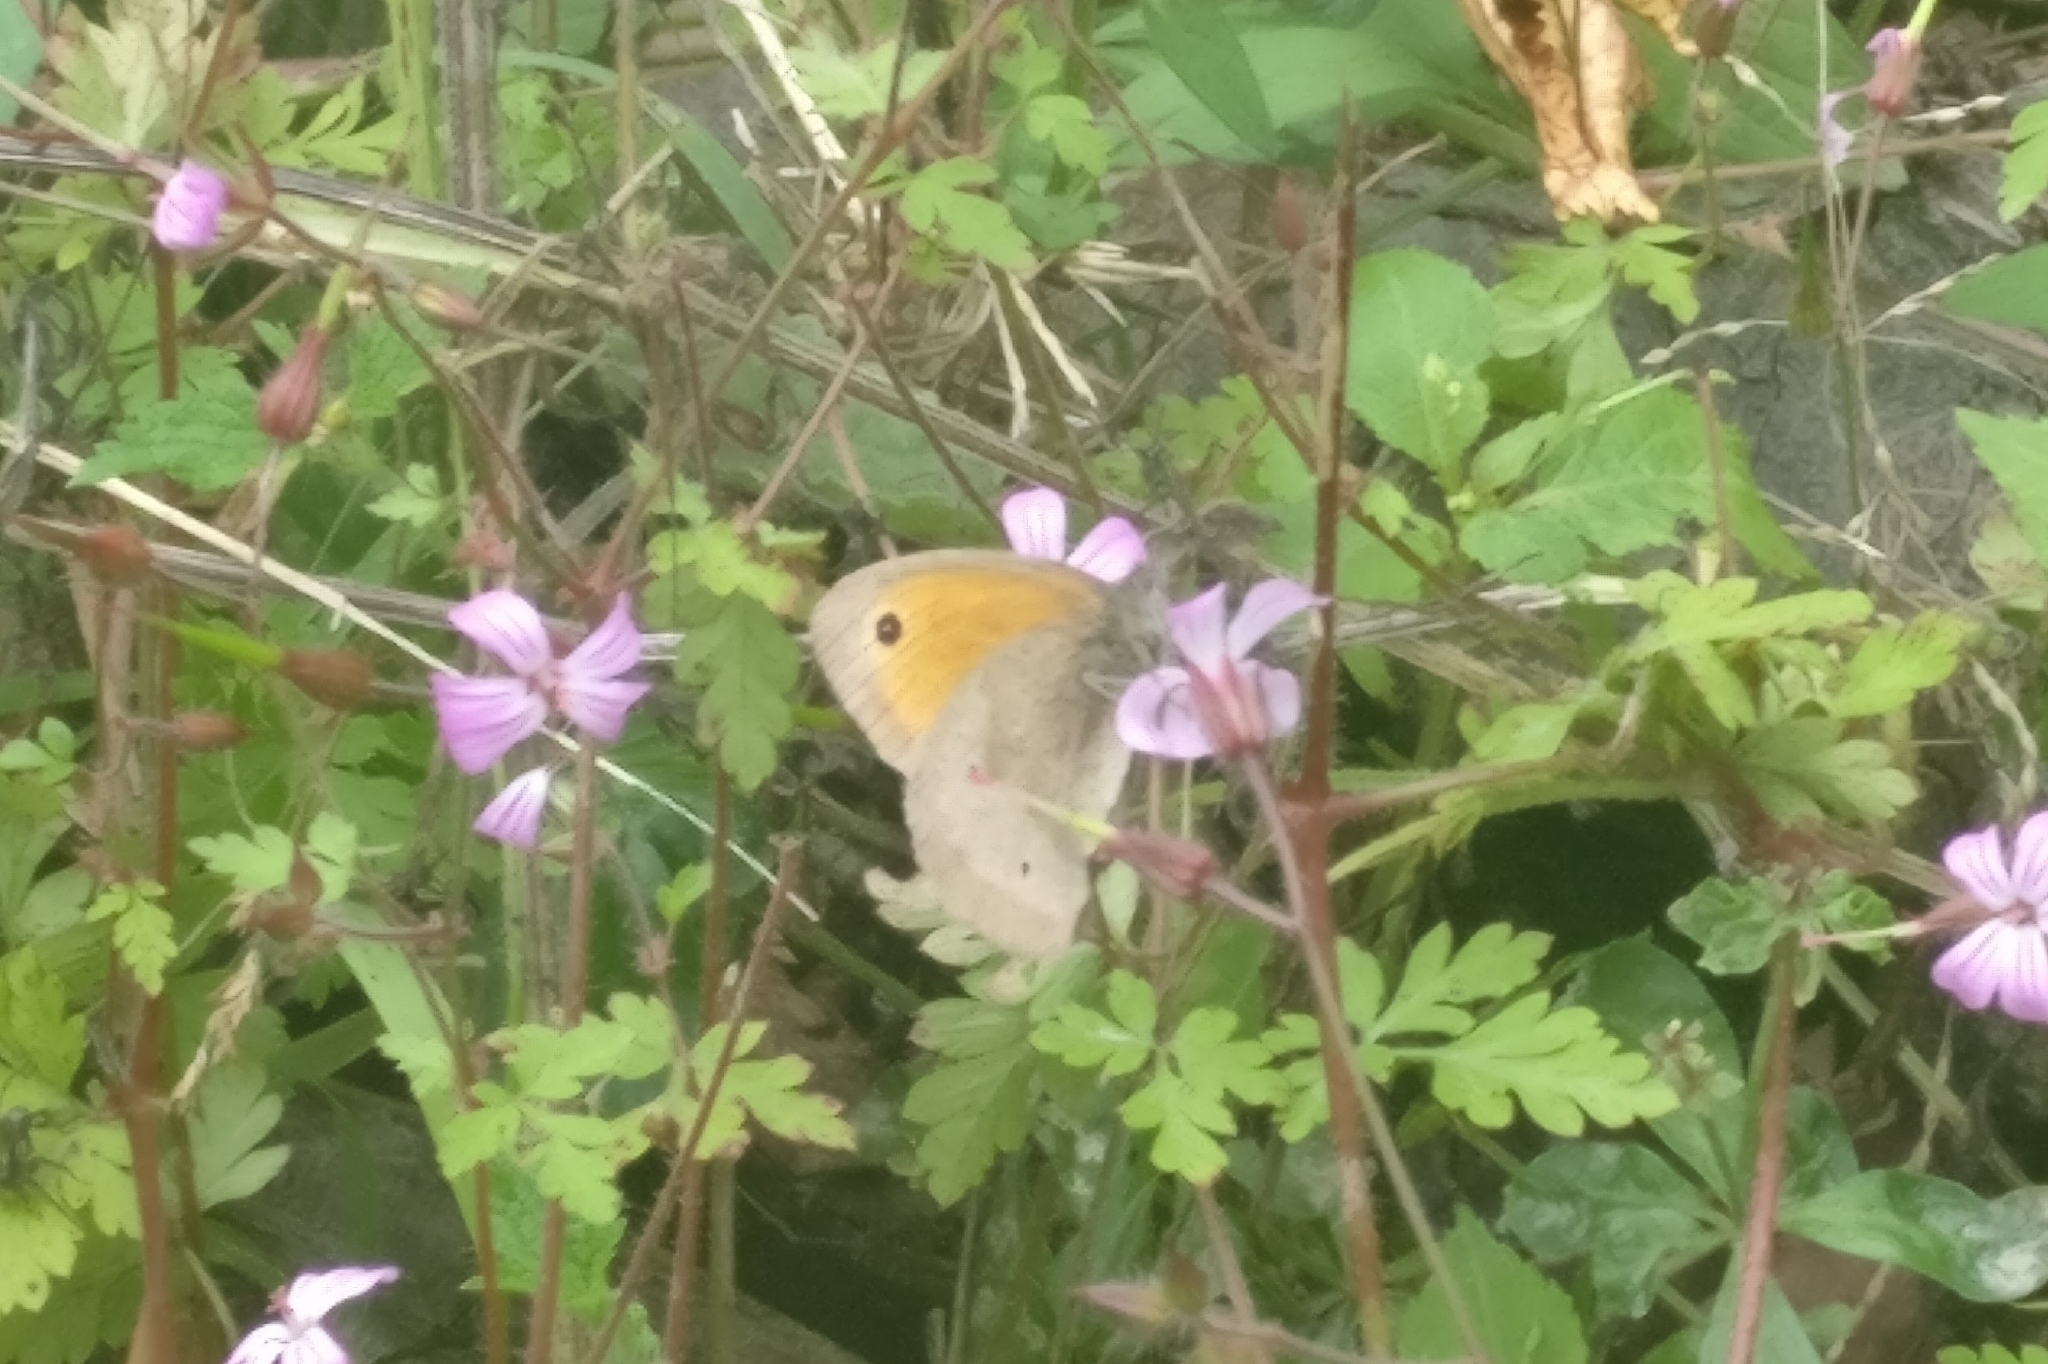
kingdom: Animalia
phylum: Arthropoda
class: Insecta
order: Lepidoptera
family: Nymphalidae
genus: Maniola
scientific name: Maniola jurtina
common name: Meadow brown
